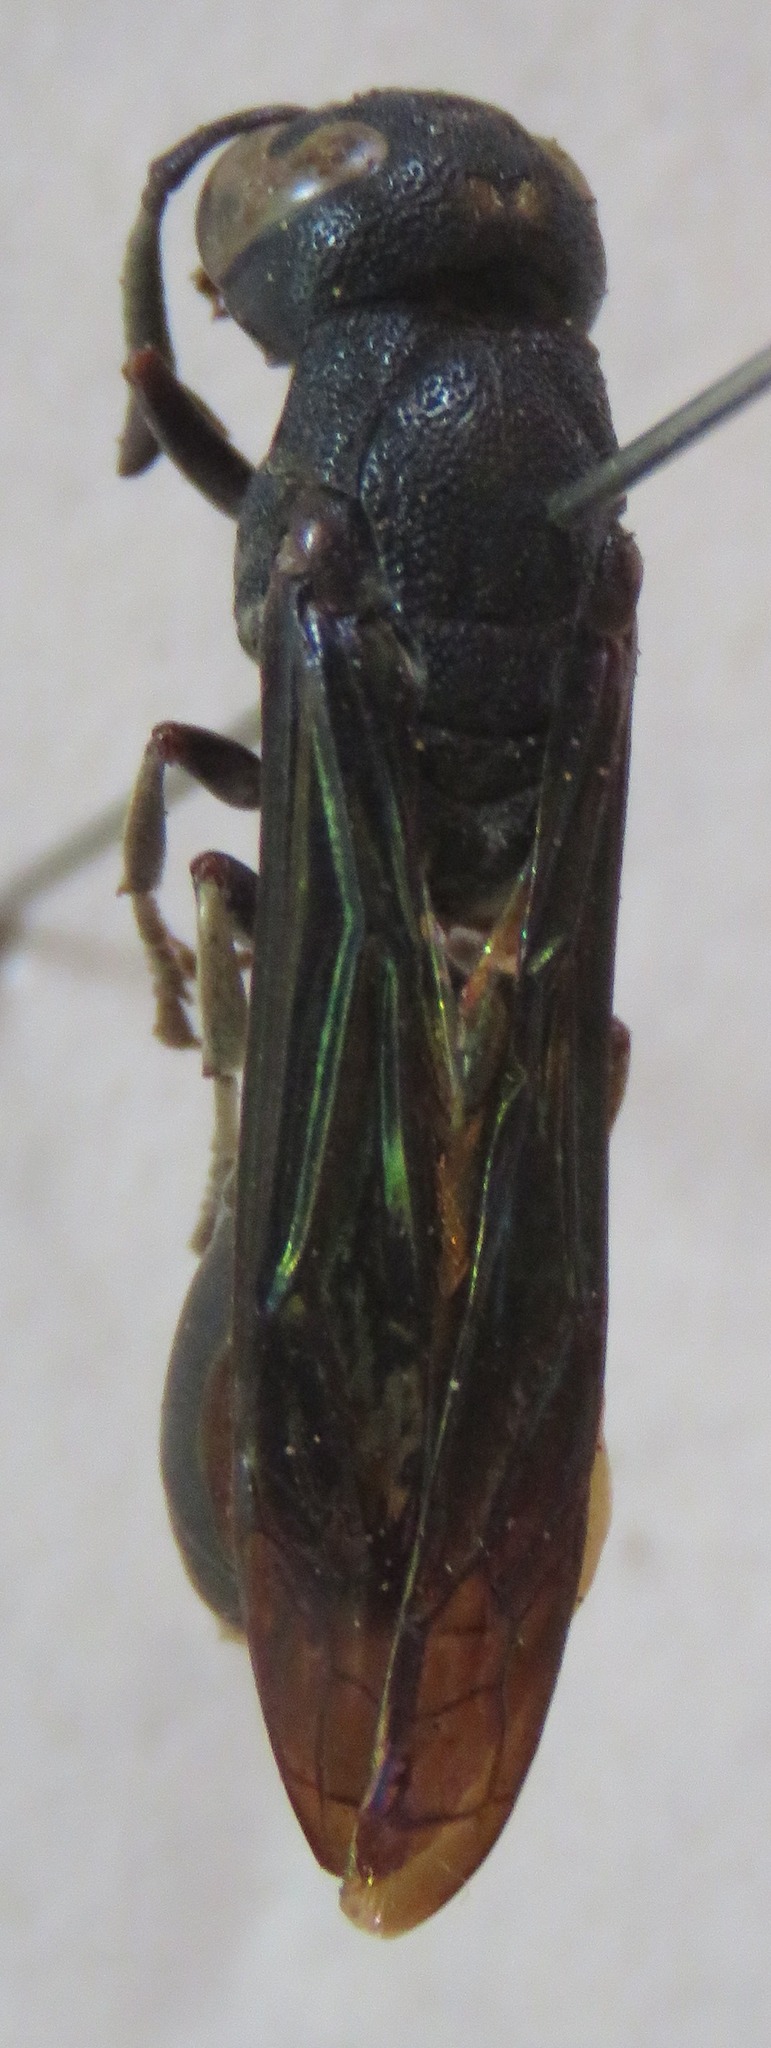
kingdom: Animalia
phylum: Arthropoda
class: Insecta
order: Hymenoptera
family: Eumenidae
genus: Plagiolabra
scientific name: Plagiolabra nigra
